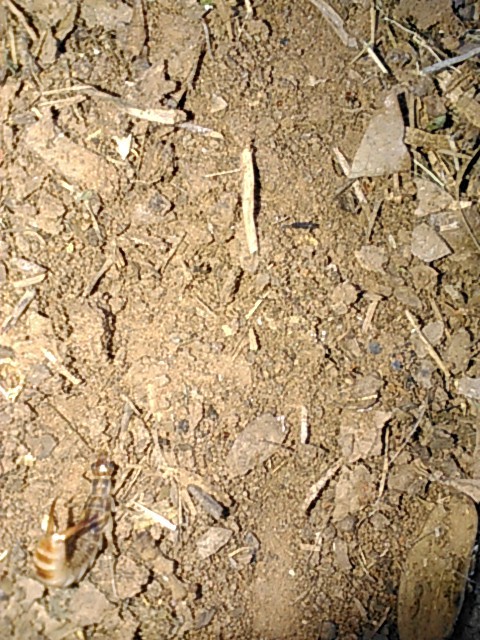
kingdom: Animalia
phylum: Arthropoda
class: Insecta
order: Dermaptera
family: Labiduridae
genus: Labidura
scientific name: Labidura riparia
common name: Striped earwig
